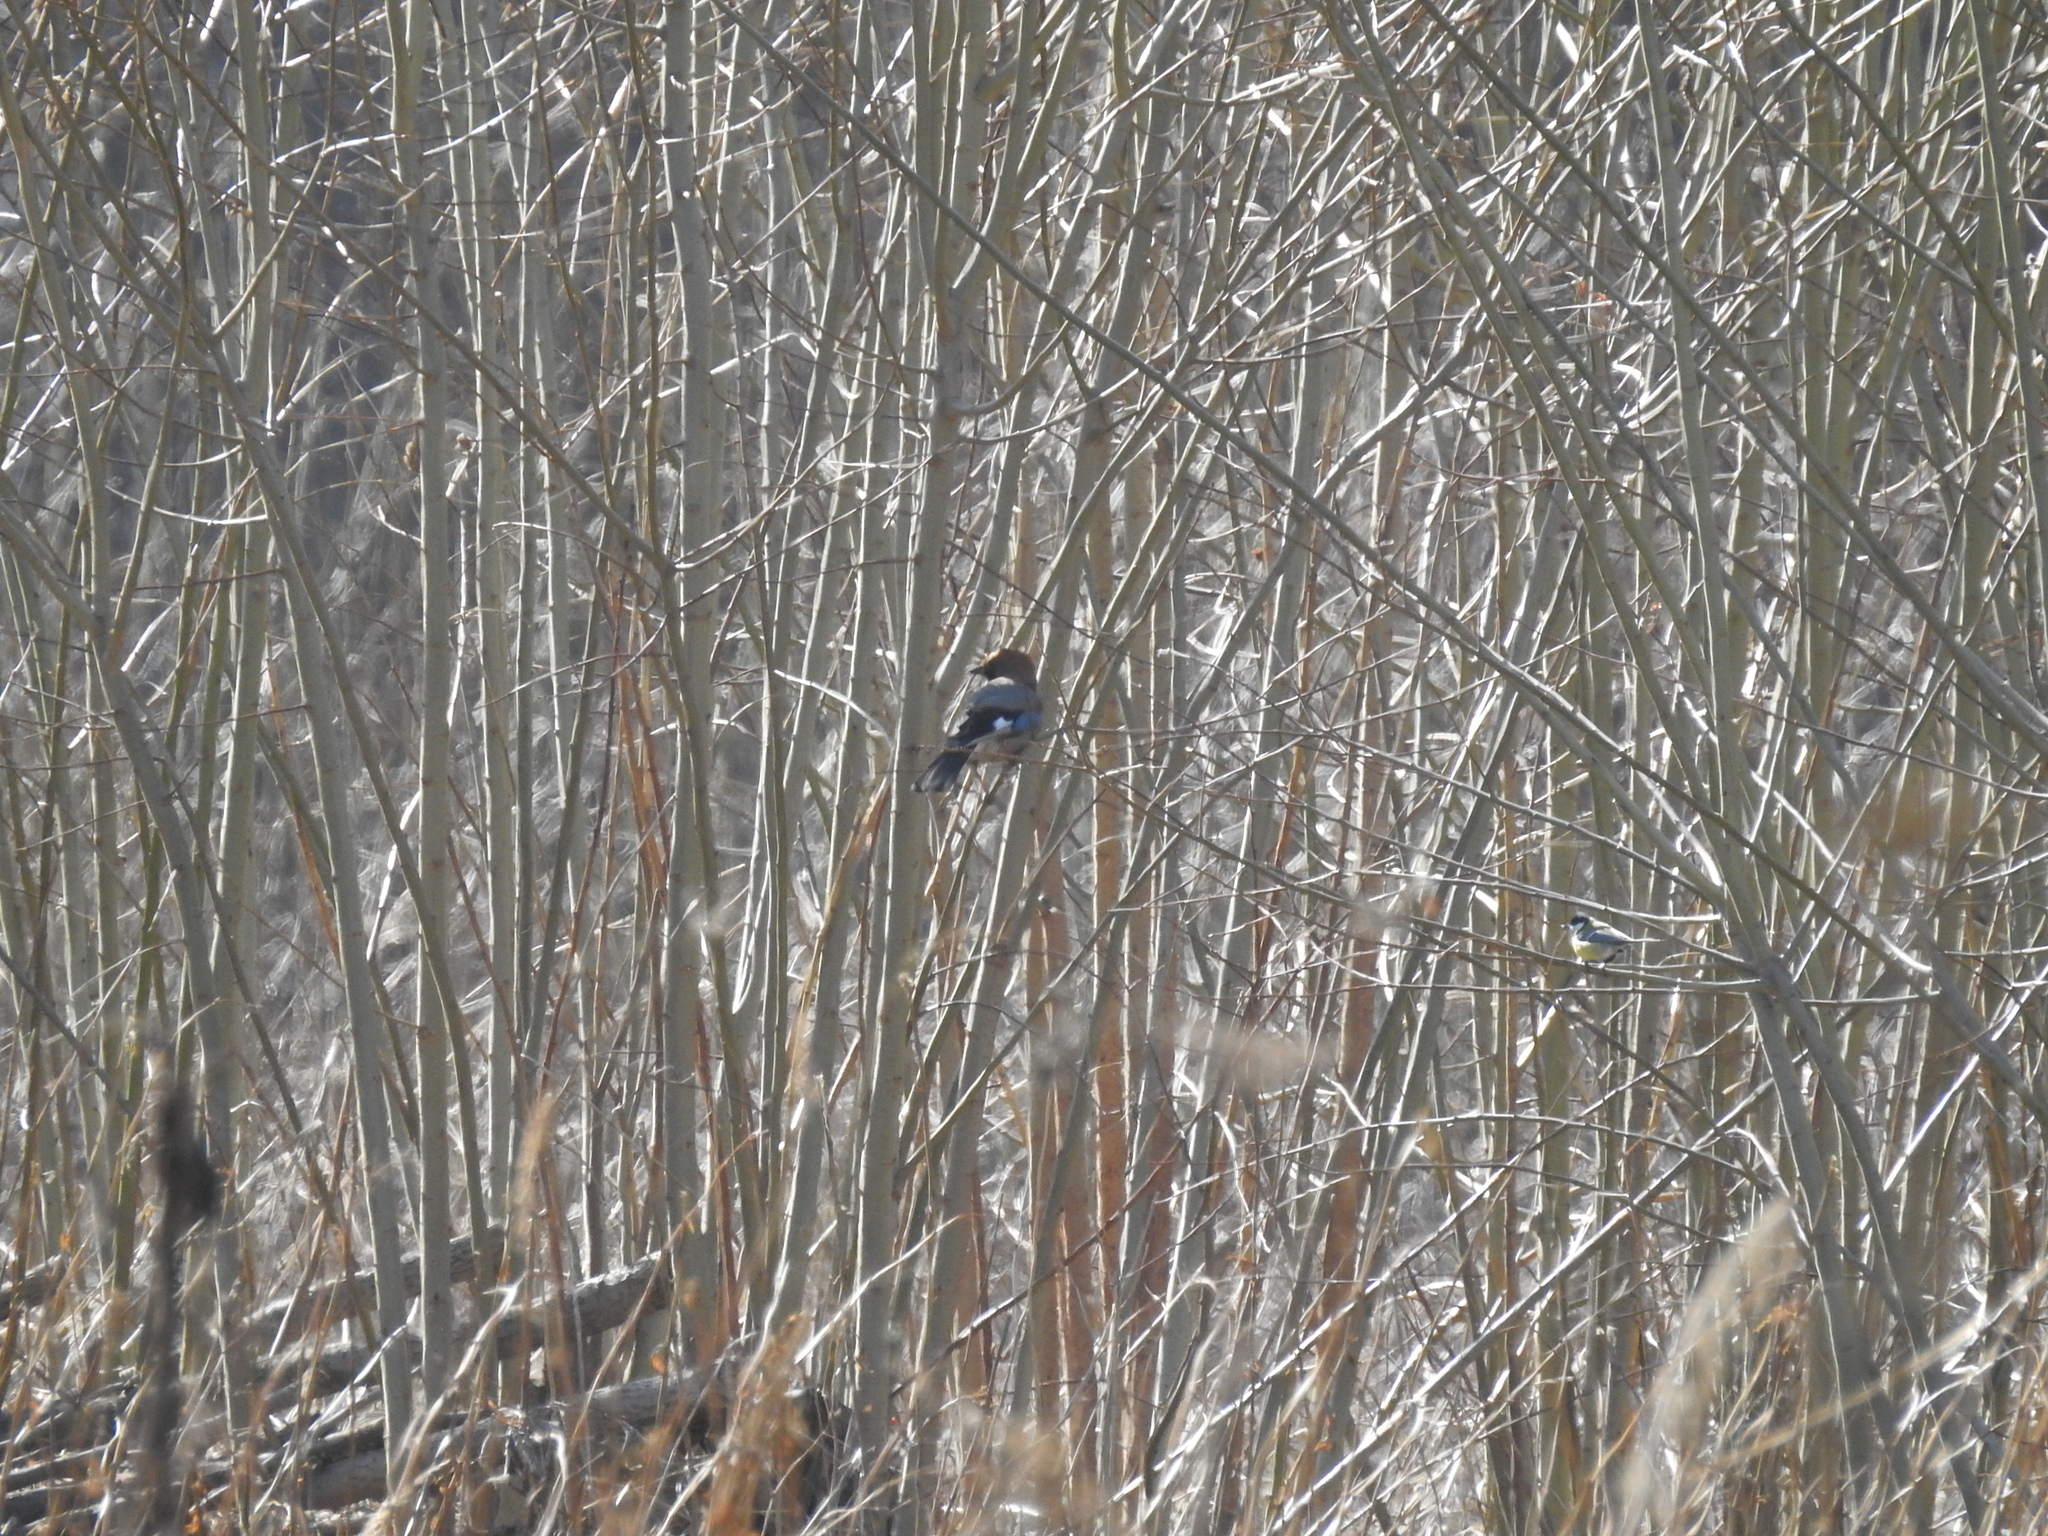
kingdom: Animalia
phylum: Chordata
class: Aves
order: Passeriformes
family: Corvidae
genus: Garrulus
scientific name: Garrulus glandarius
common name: Eurasian jay
